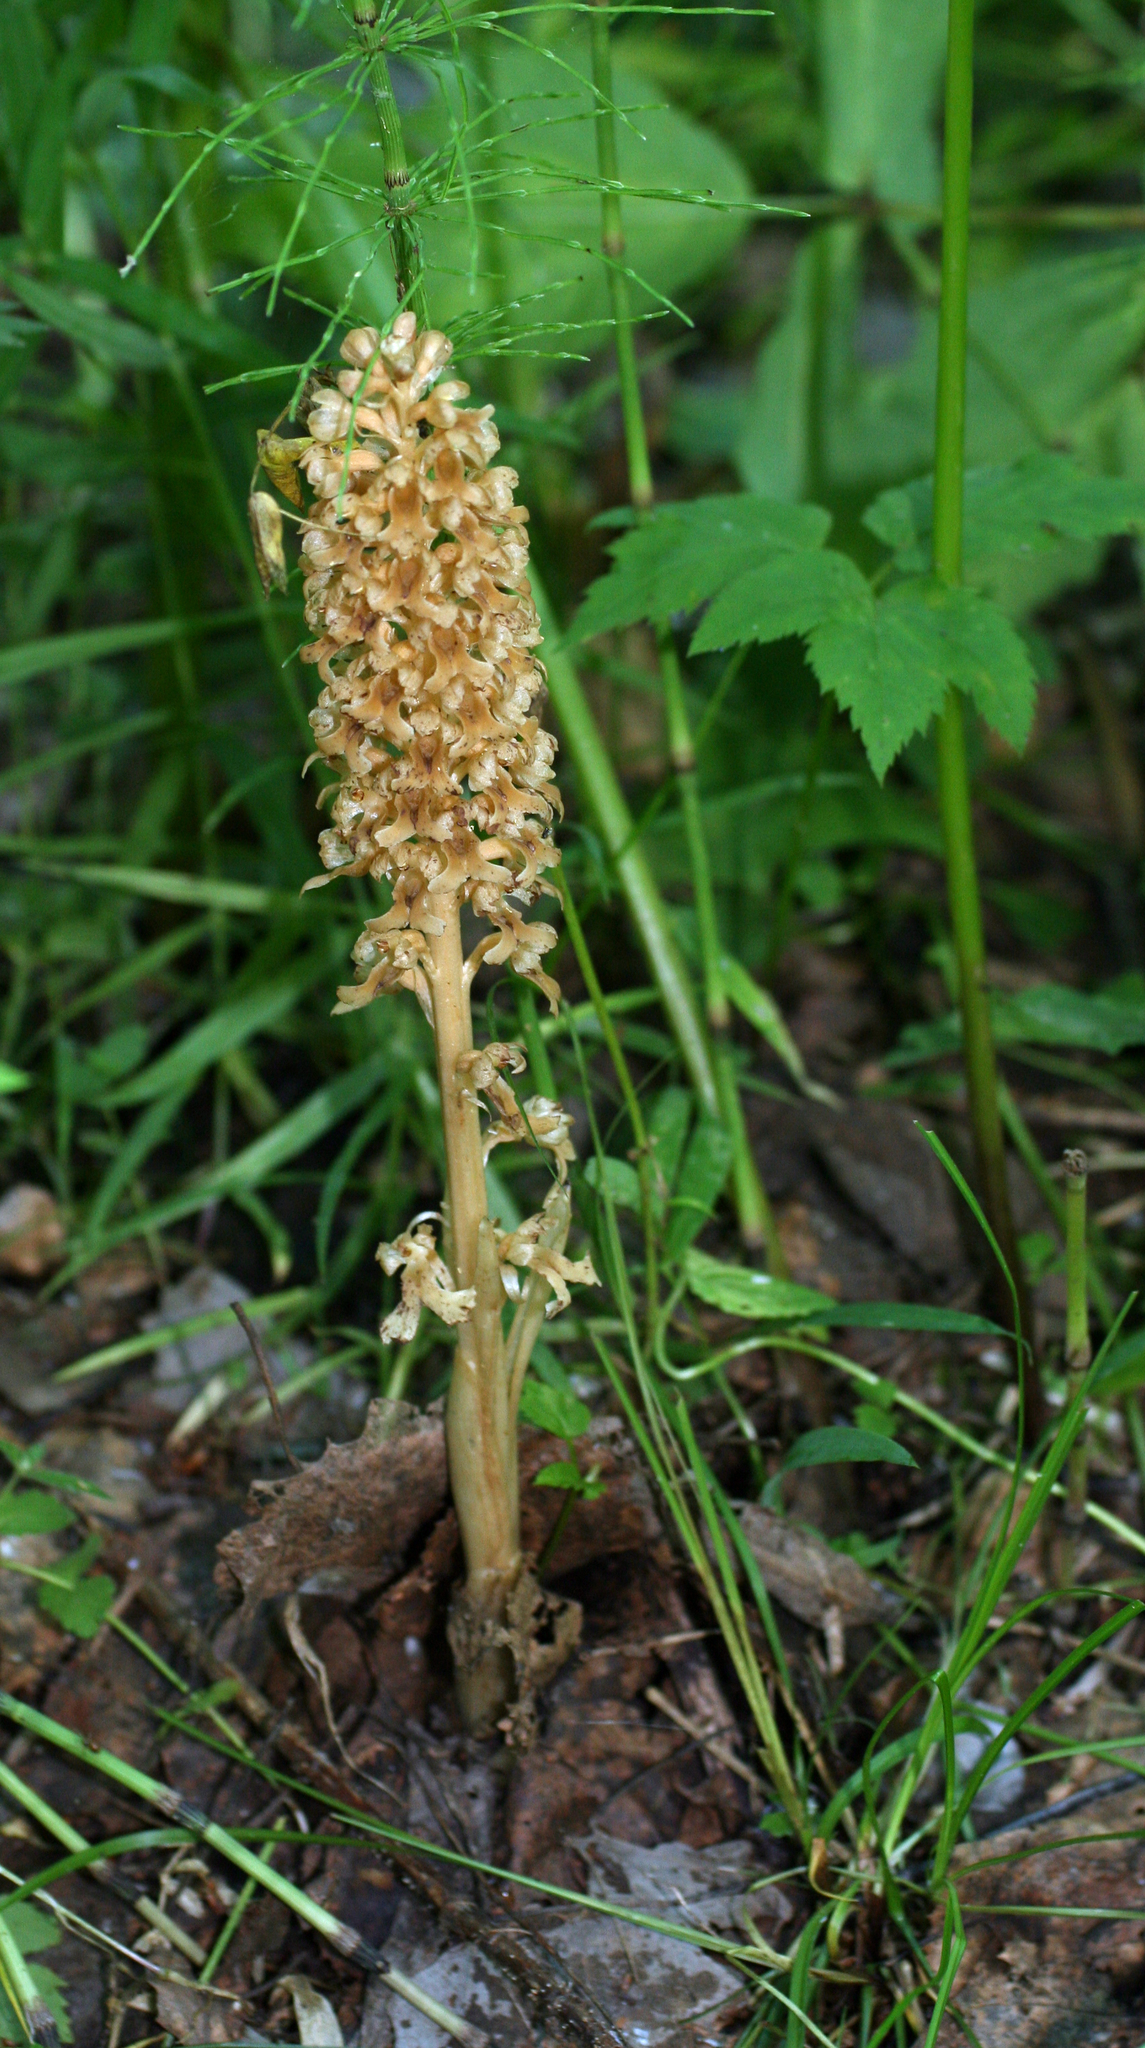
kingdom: Plantae
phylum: Tracheophyta
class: Liliopsida
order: Asparagales
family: Orchidaceae
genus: Neottia
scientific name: Neottia nidus-avis
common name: Bird's-nest orchid
